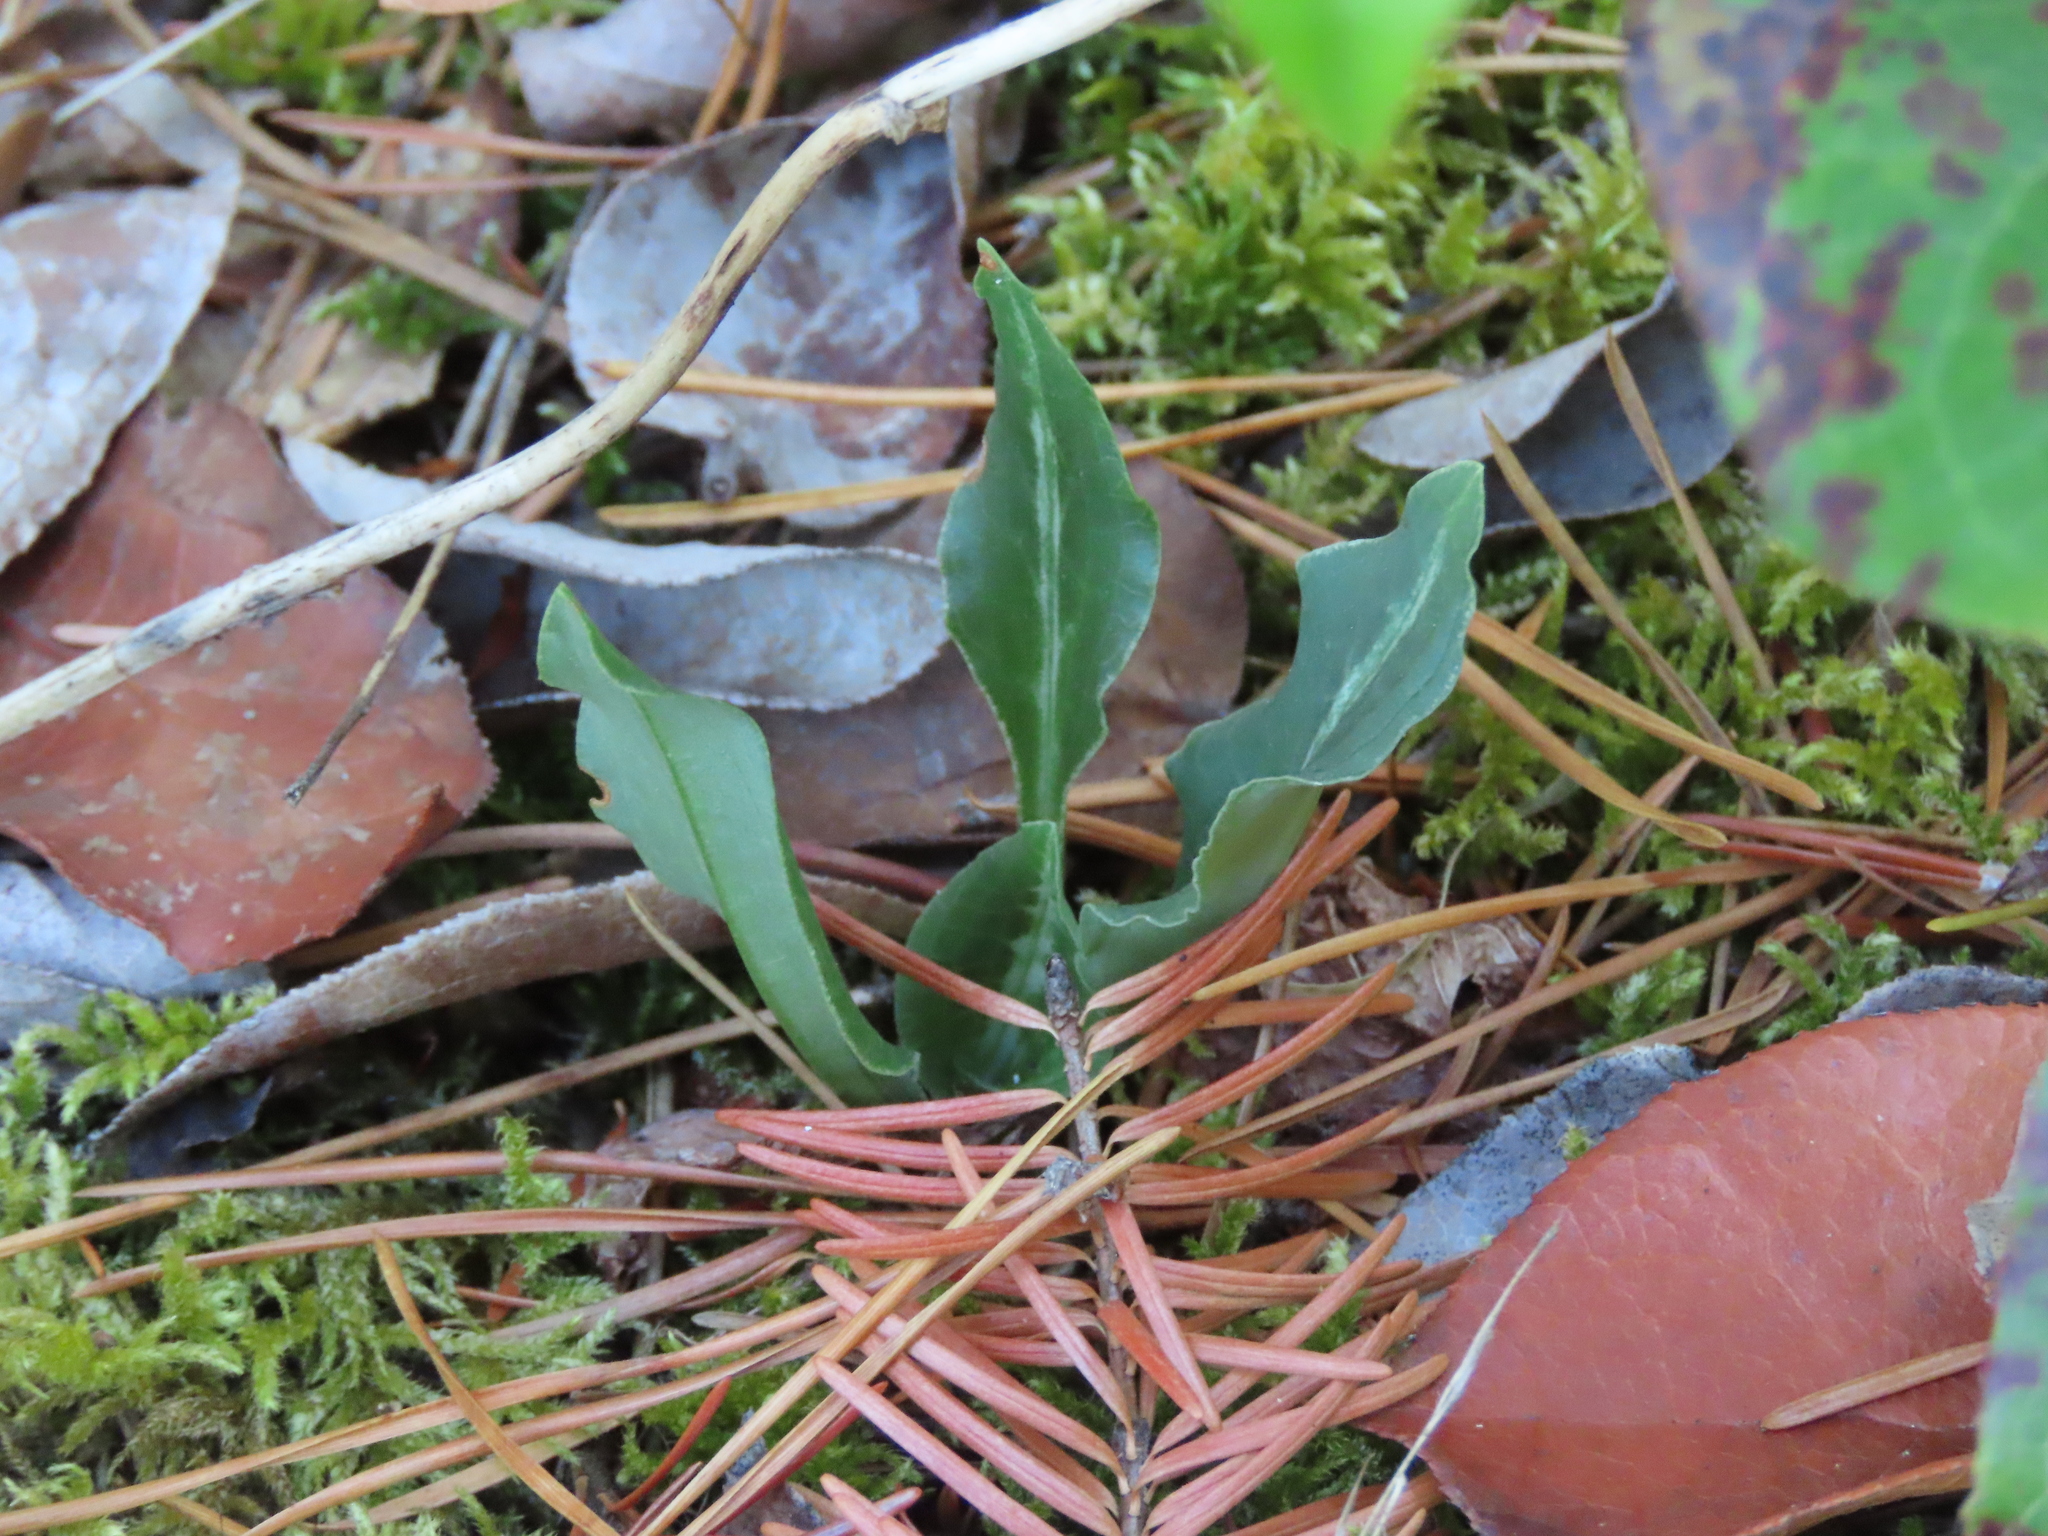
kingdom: Plantae
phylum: Tracheophyta
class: Liliopsida
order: Asparagales
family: Orchidaceae
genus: Goodyera
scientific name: Goodyera oblongifolia
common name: Giant rattlesnake-plantain
